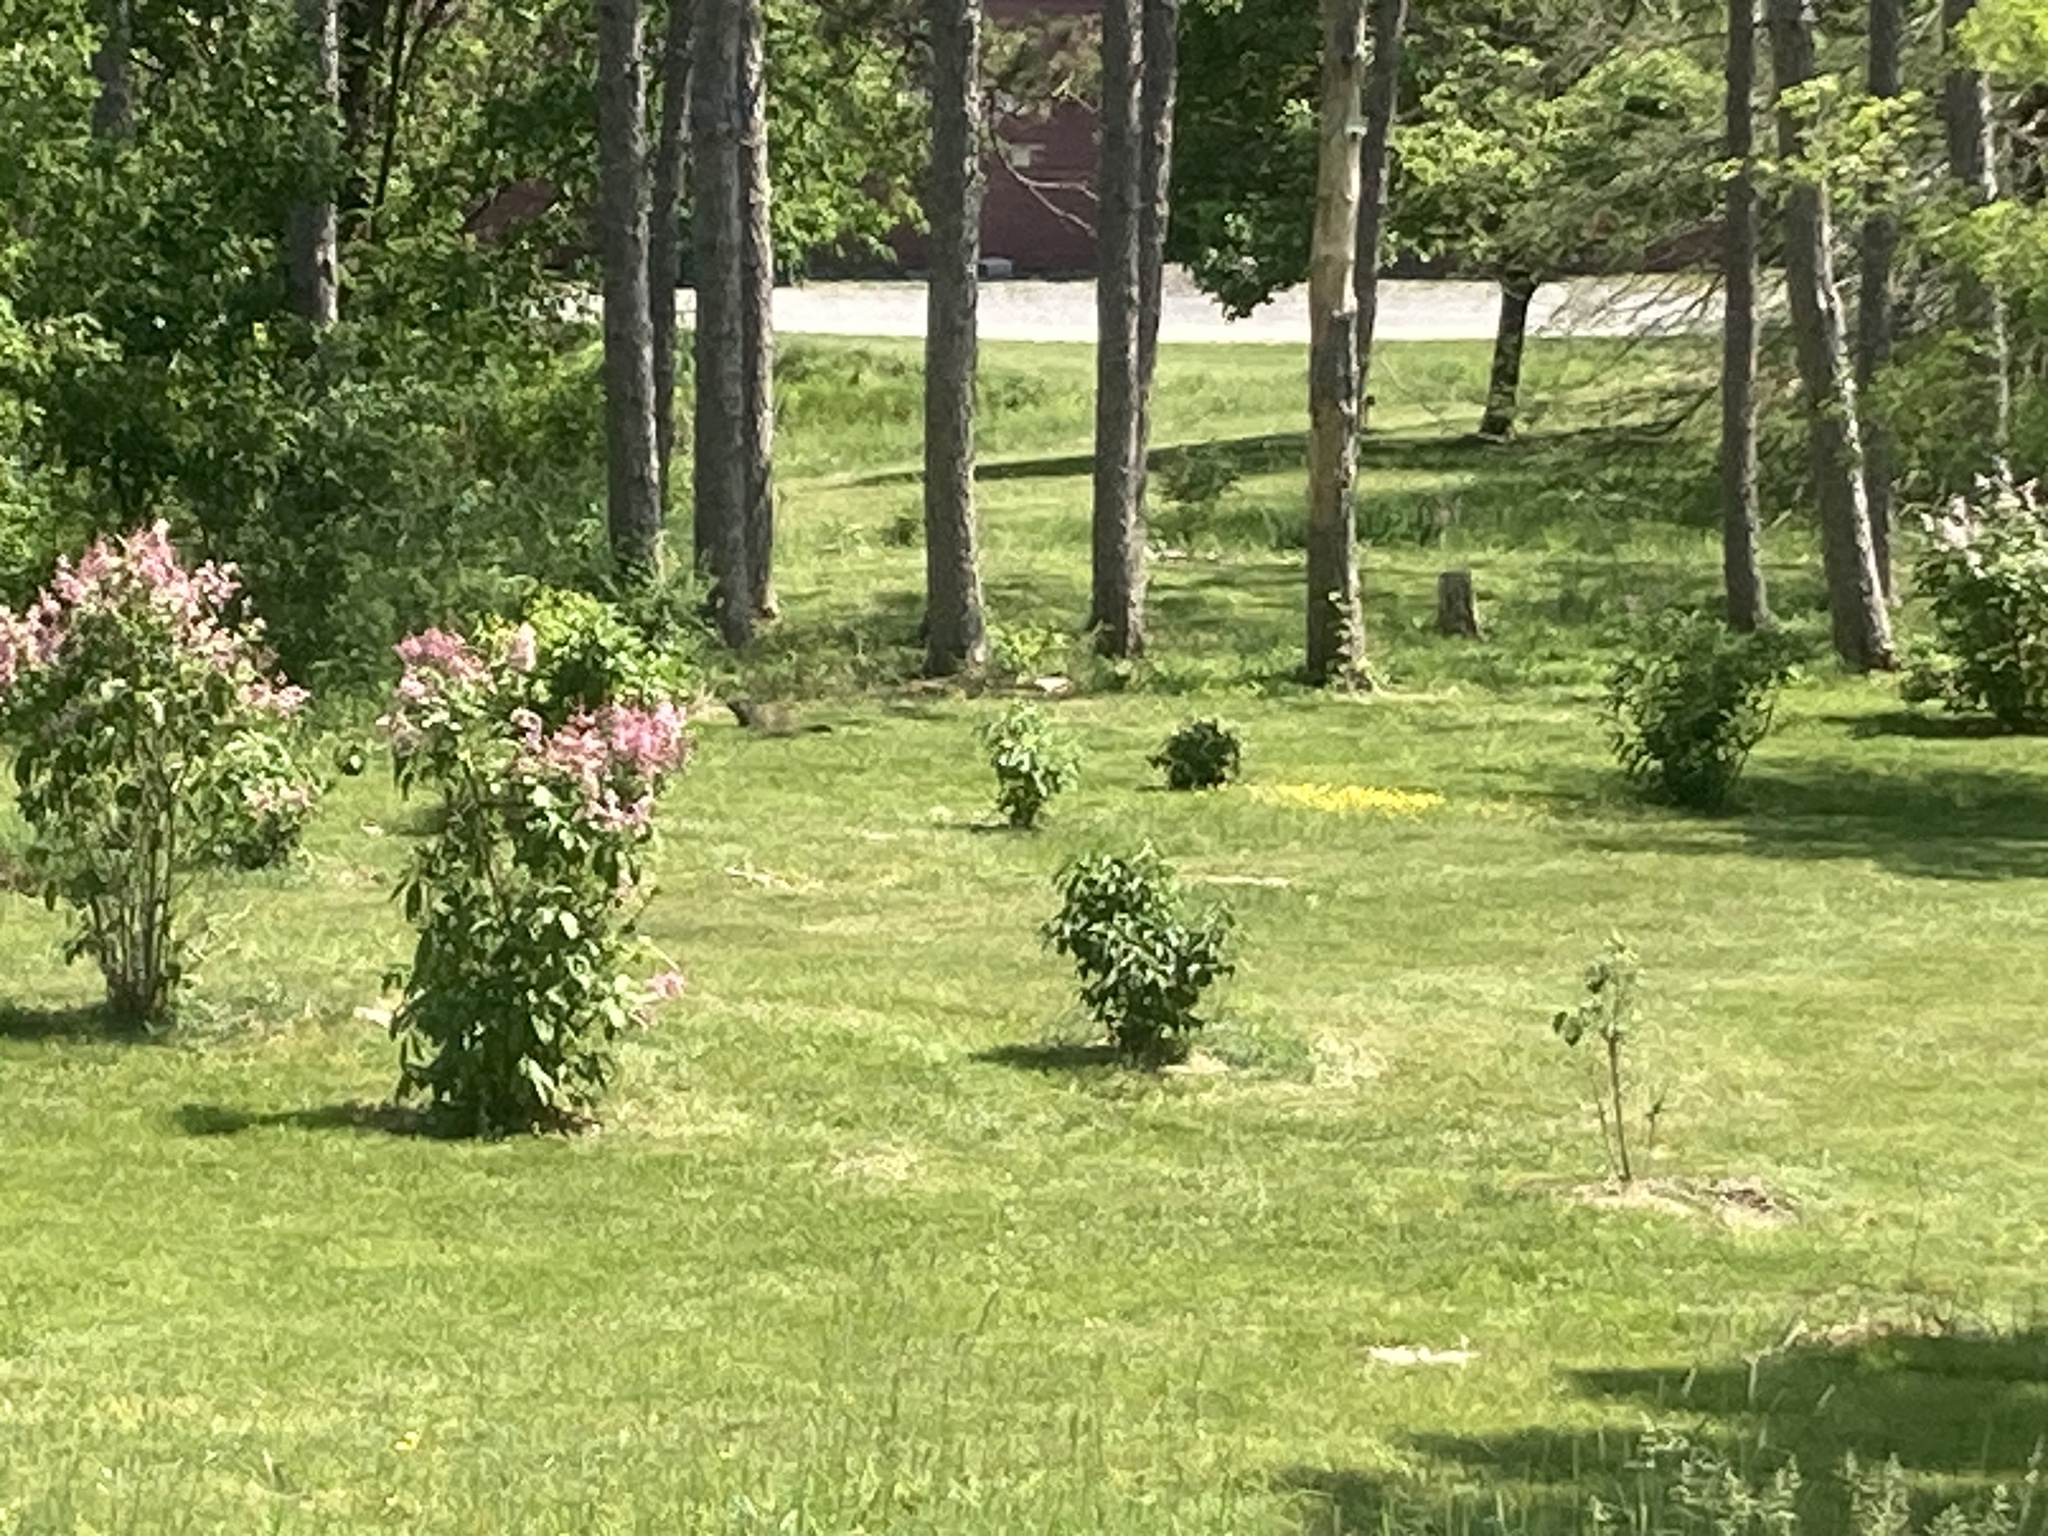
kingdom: Animalia
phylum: Chordata
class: Mammalia
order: Rodentia
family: Sciuridae
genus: Marmota
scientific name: Marmota monax
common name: Groundhog
